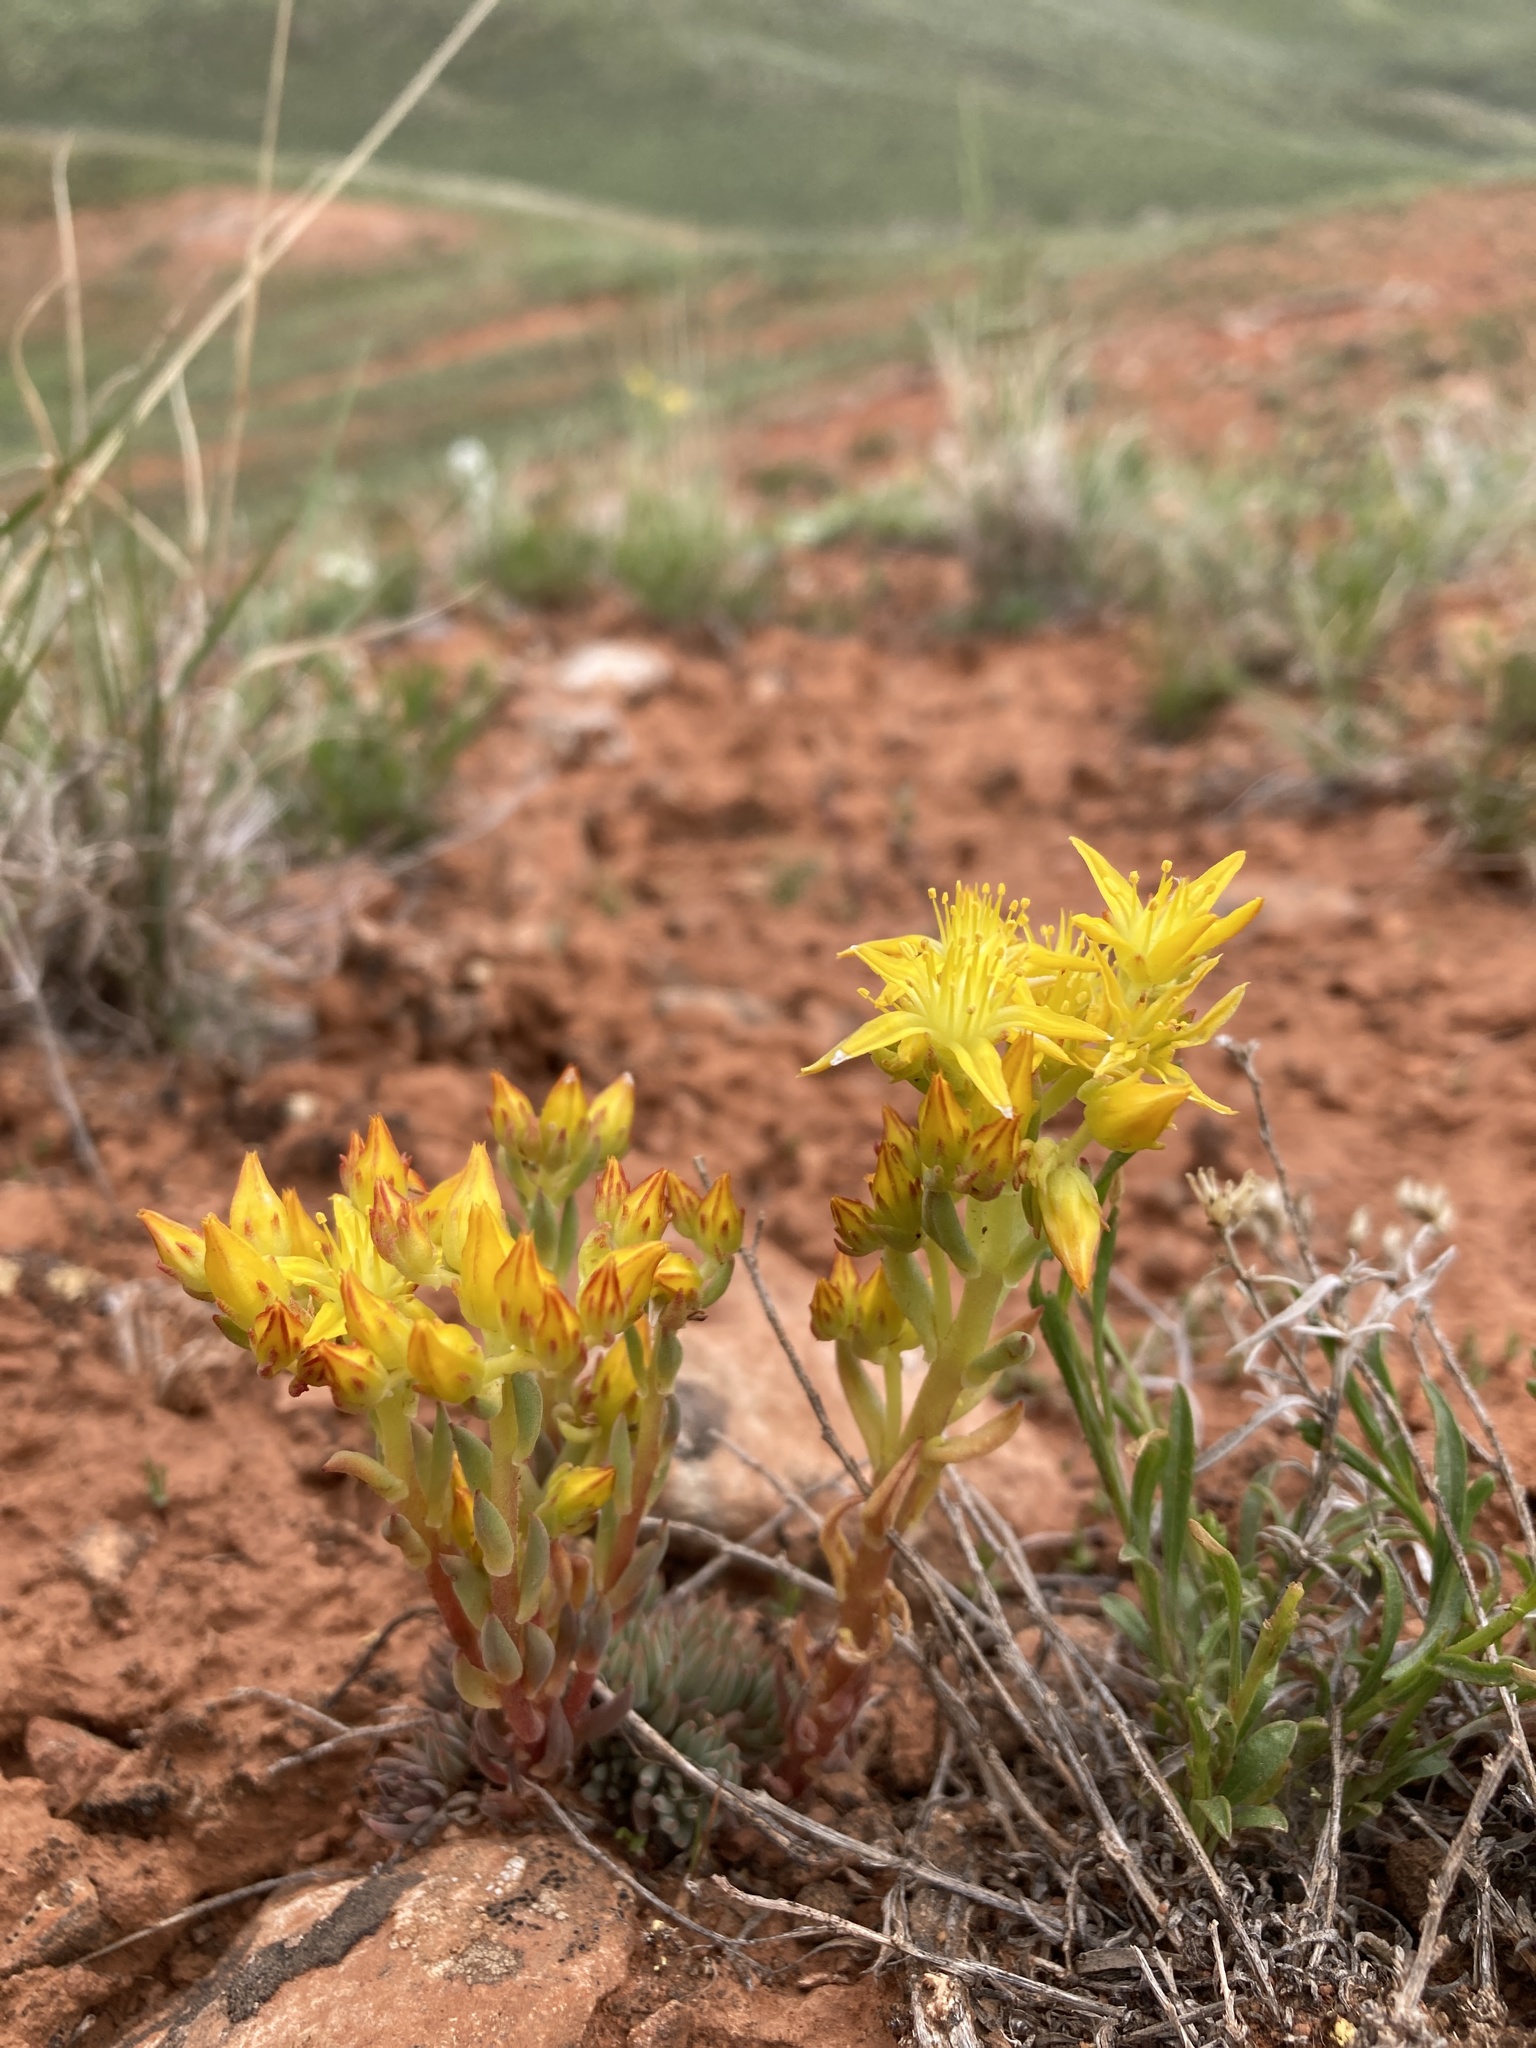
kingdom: Plantae
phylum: Tracheophyta
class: Magnoliopsida
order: Saxifragales
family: Crassulaceae
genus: Sedum
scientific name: Sedum lanceolatum
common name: Common stonecrop
